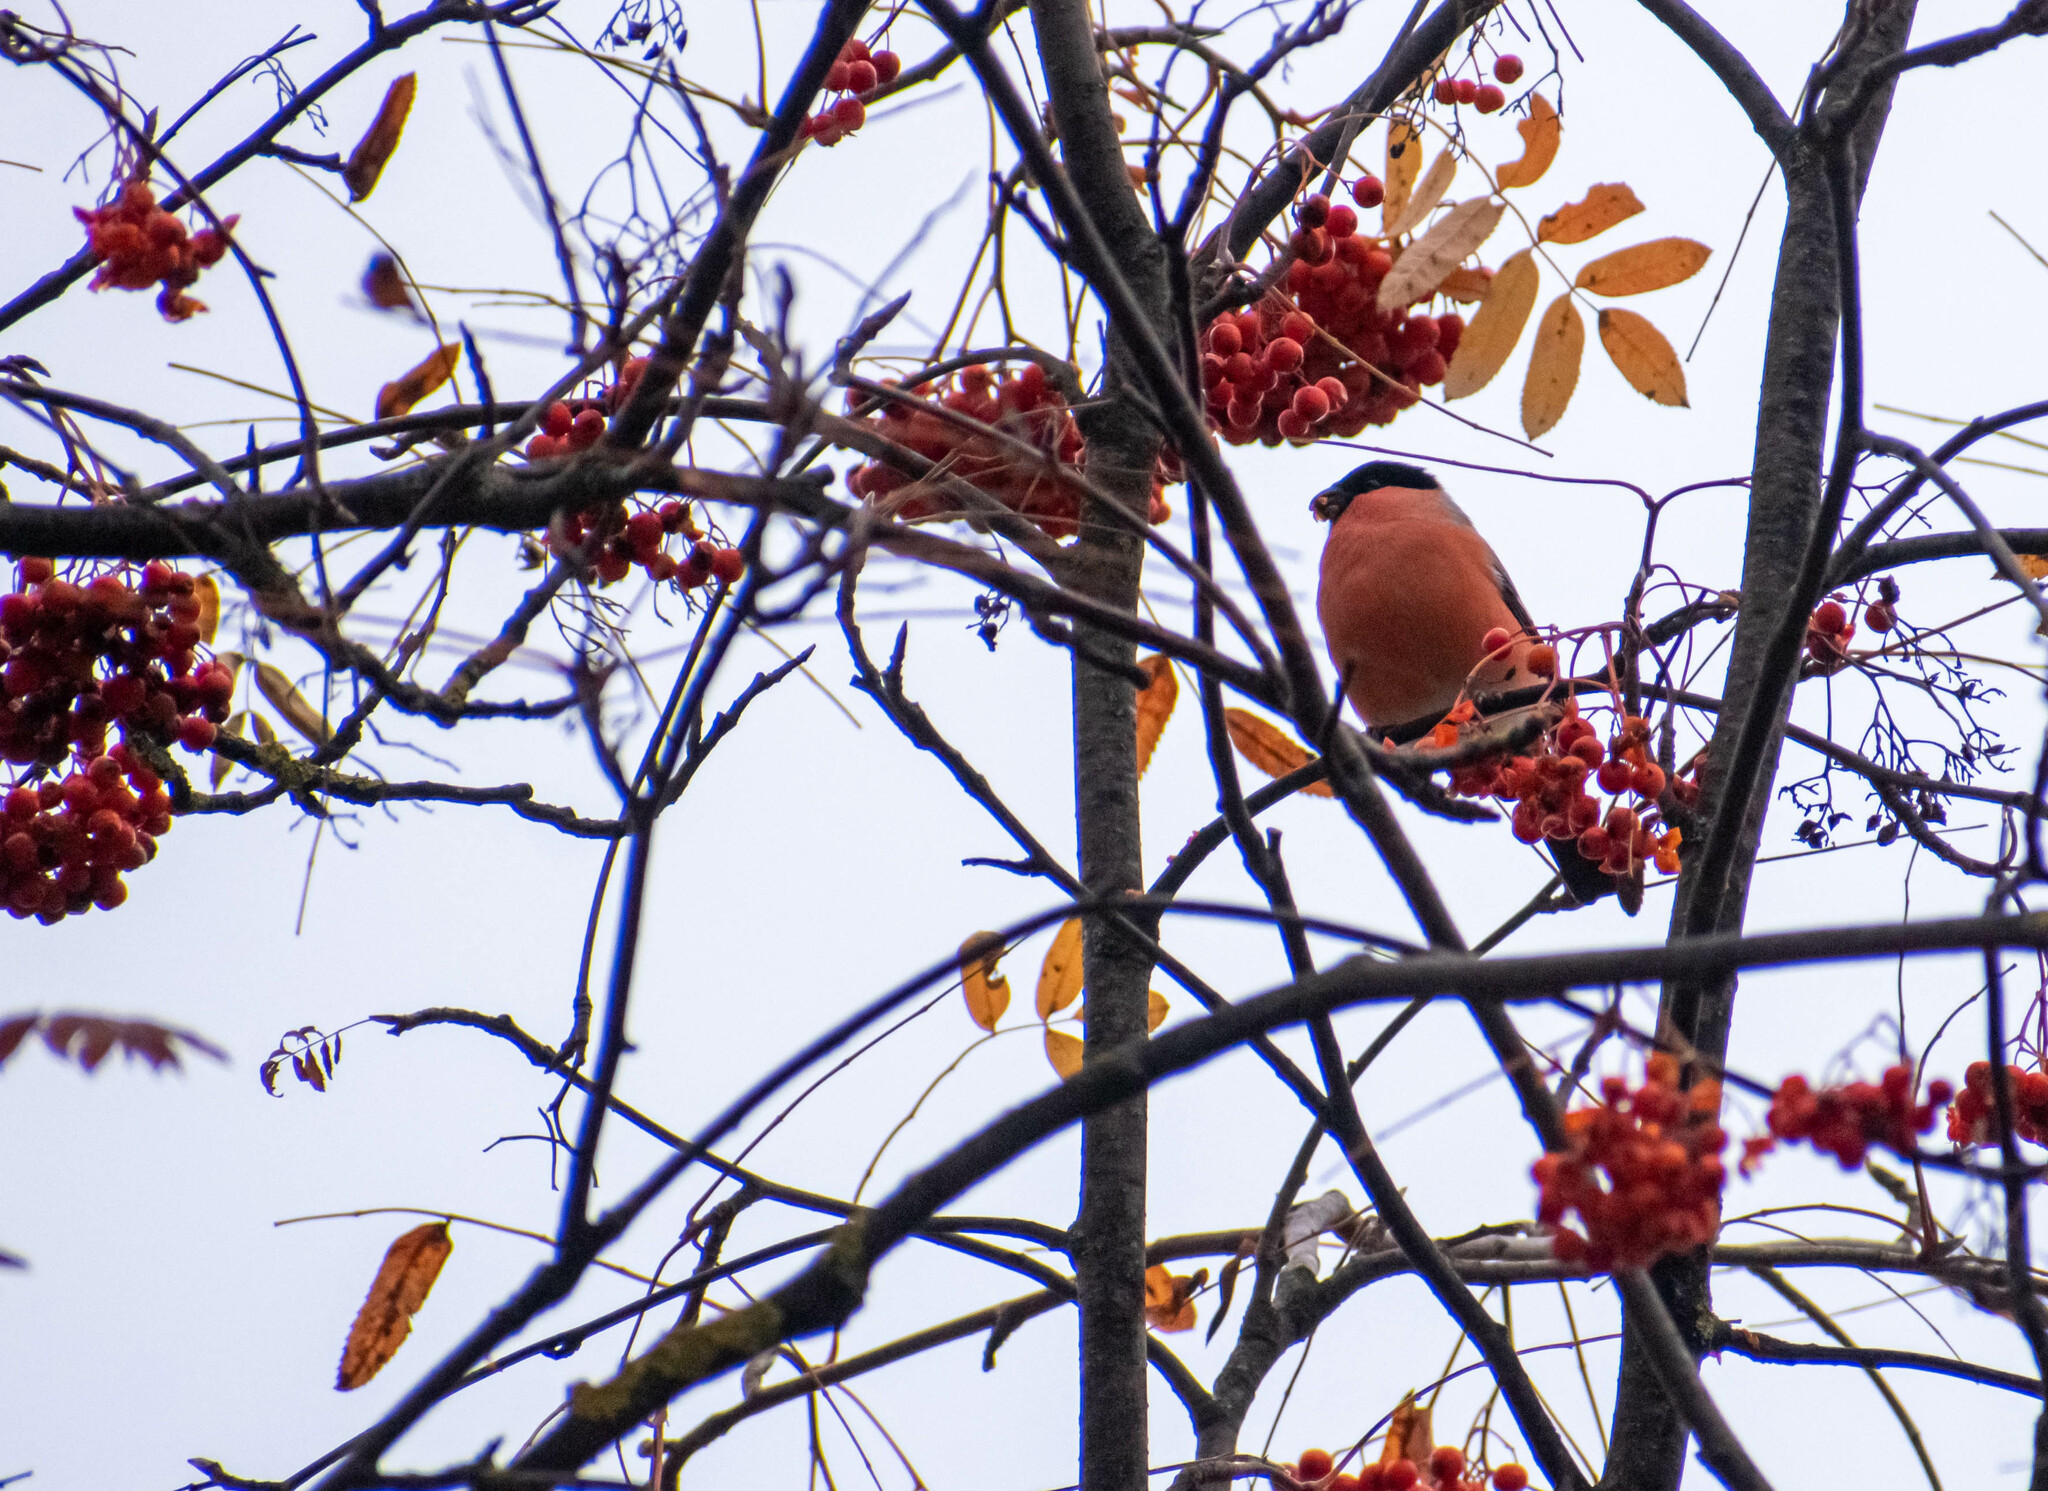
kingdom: Animalia
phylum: Chordata
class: Aves
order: Passeriformes
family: Fringillidae
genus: Pyrrhula
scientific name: Pyrrhula pyrrhula
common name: Eurasian bullfinch
